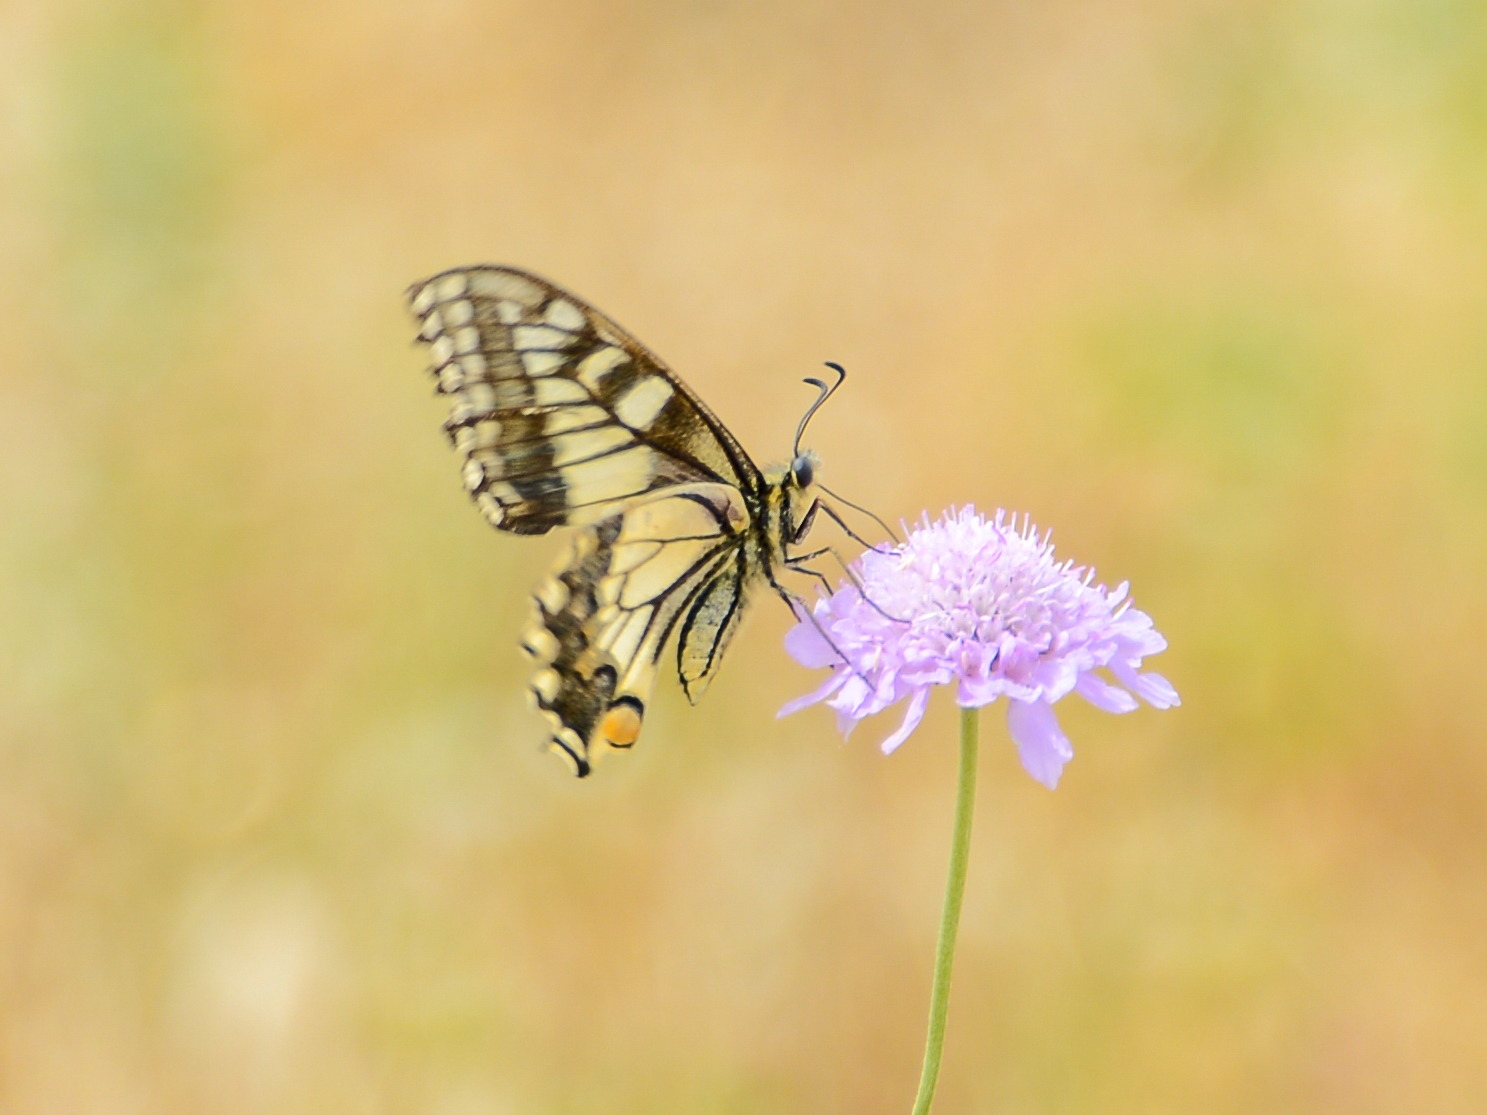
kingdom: Animalia
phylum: Arthropoda
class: Insecta
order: Lepidoptera
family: Papilionidae
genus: Papilio
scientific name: Papilio machaon
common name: Swallowtail
